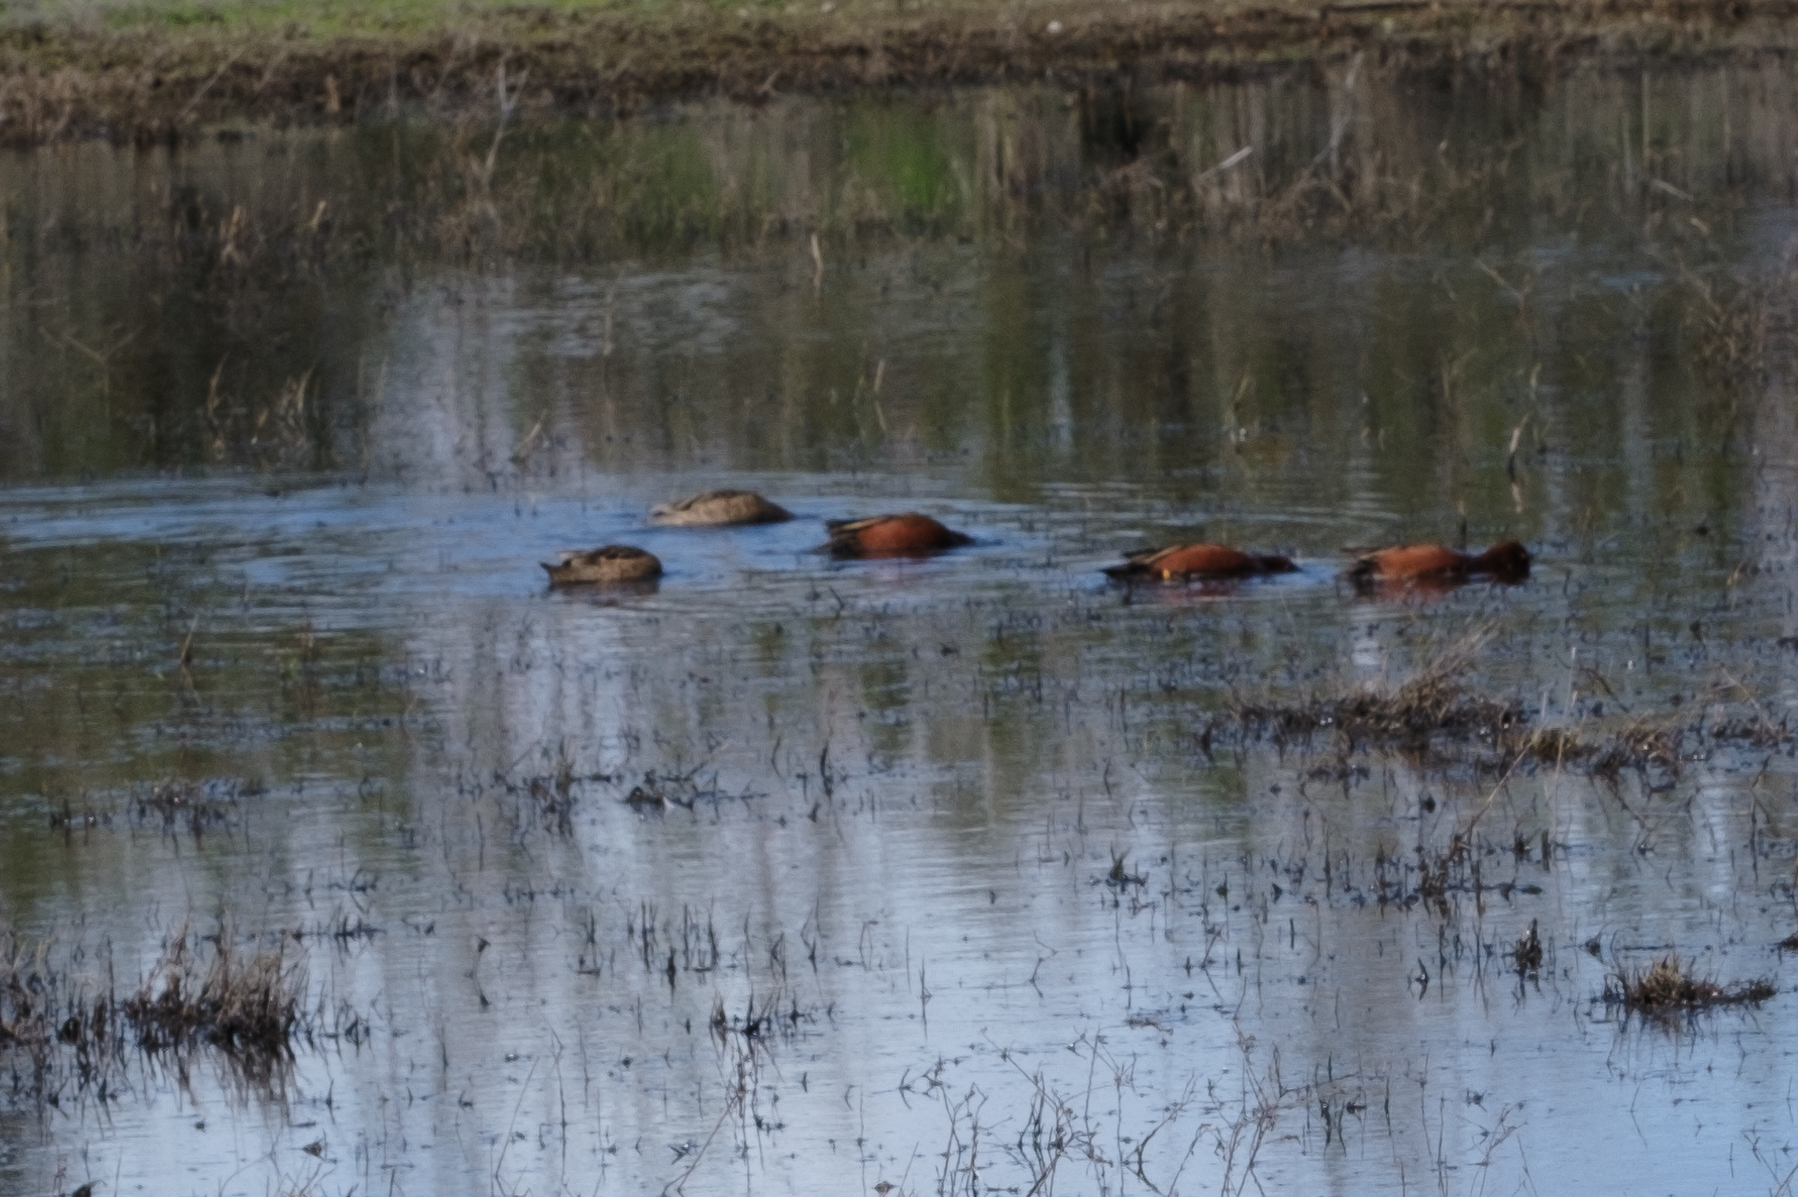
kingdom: Animalia
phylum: Chordata
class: Aves
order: Anseriformes
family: Anatidae
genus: Spatula
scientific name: Spatula cyanoptera
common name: Cinnamon teal
